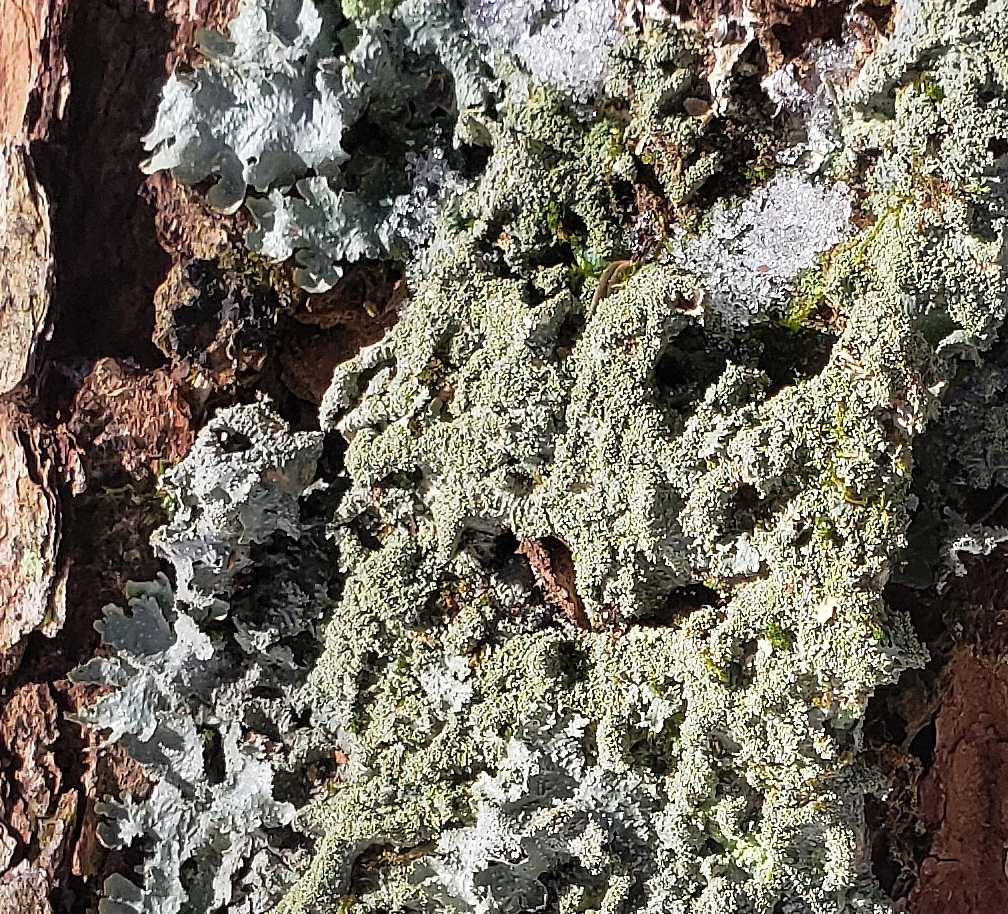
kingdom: Fungi
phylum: Ascomycota
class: Lecanoromycetes
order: Lecanorales
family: Parmeliaceae
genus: Punctelia
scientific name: Punctelia rudecta
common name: Rough speckled shield lichen
